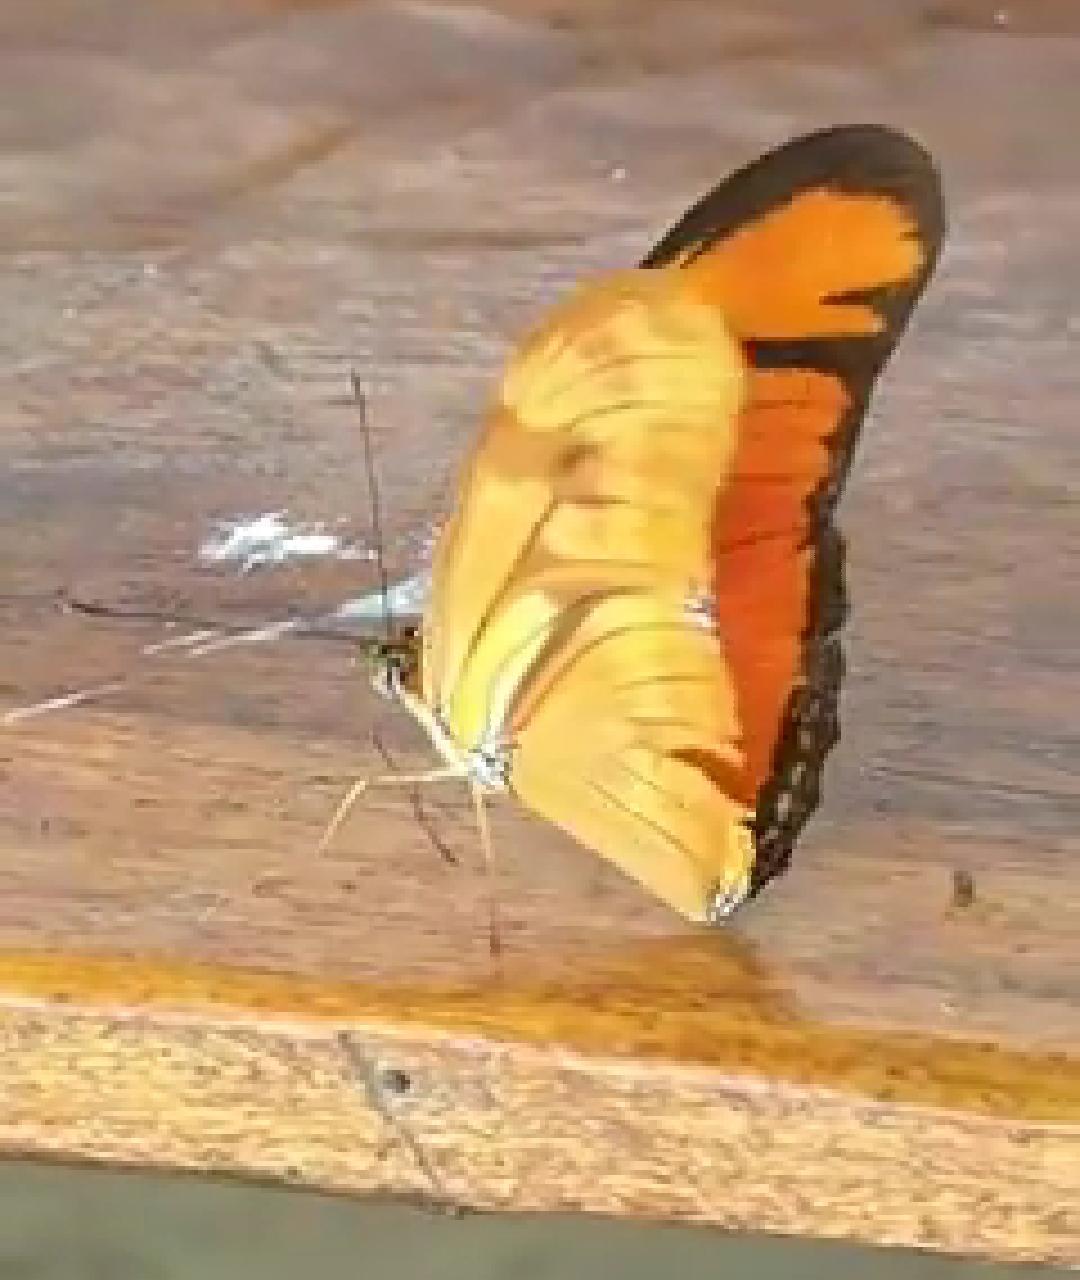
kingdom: Animalia
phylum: Arthropoda
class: Insecta
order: Lepidoptera
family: Nymphalidae
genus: Dryas
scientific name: Dryas iulia
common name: Flambeau
